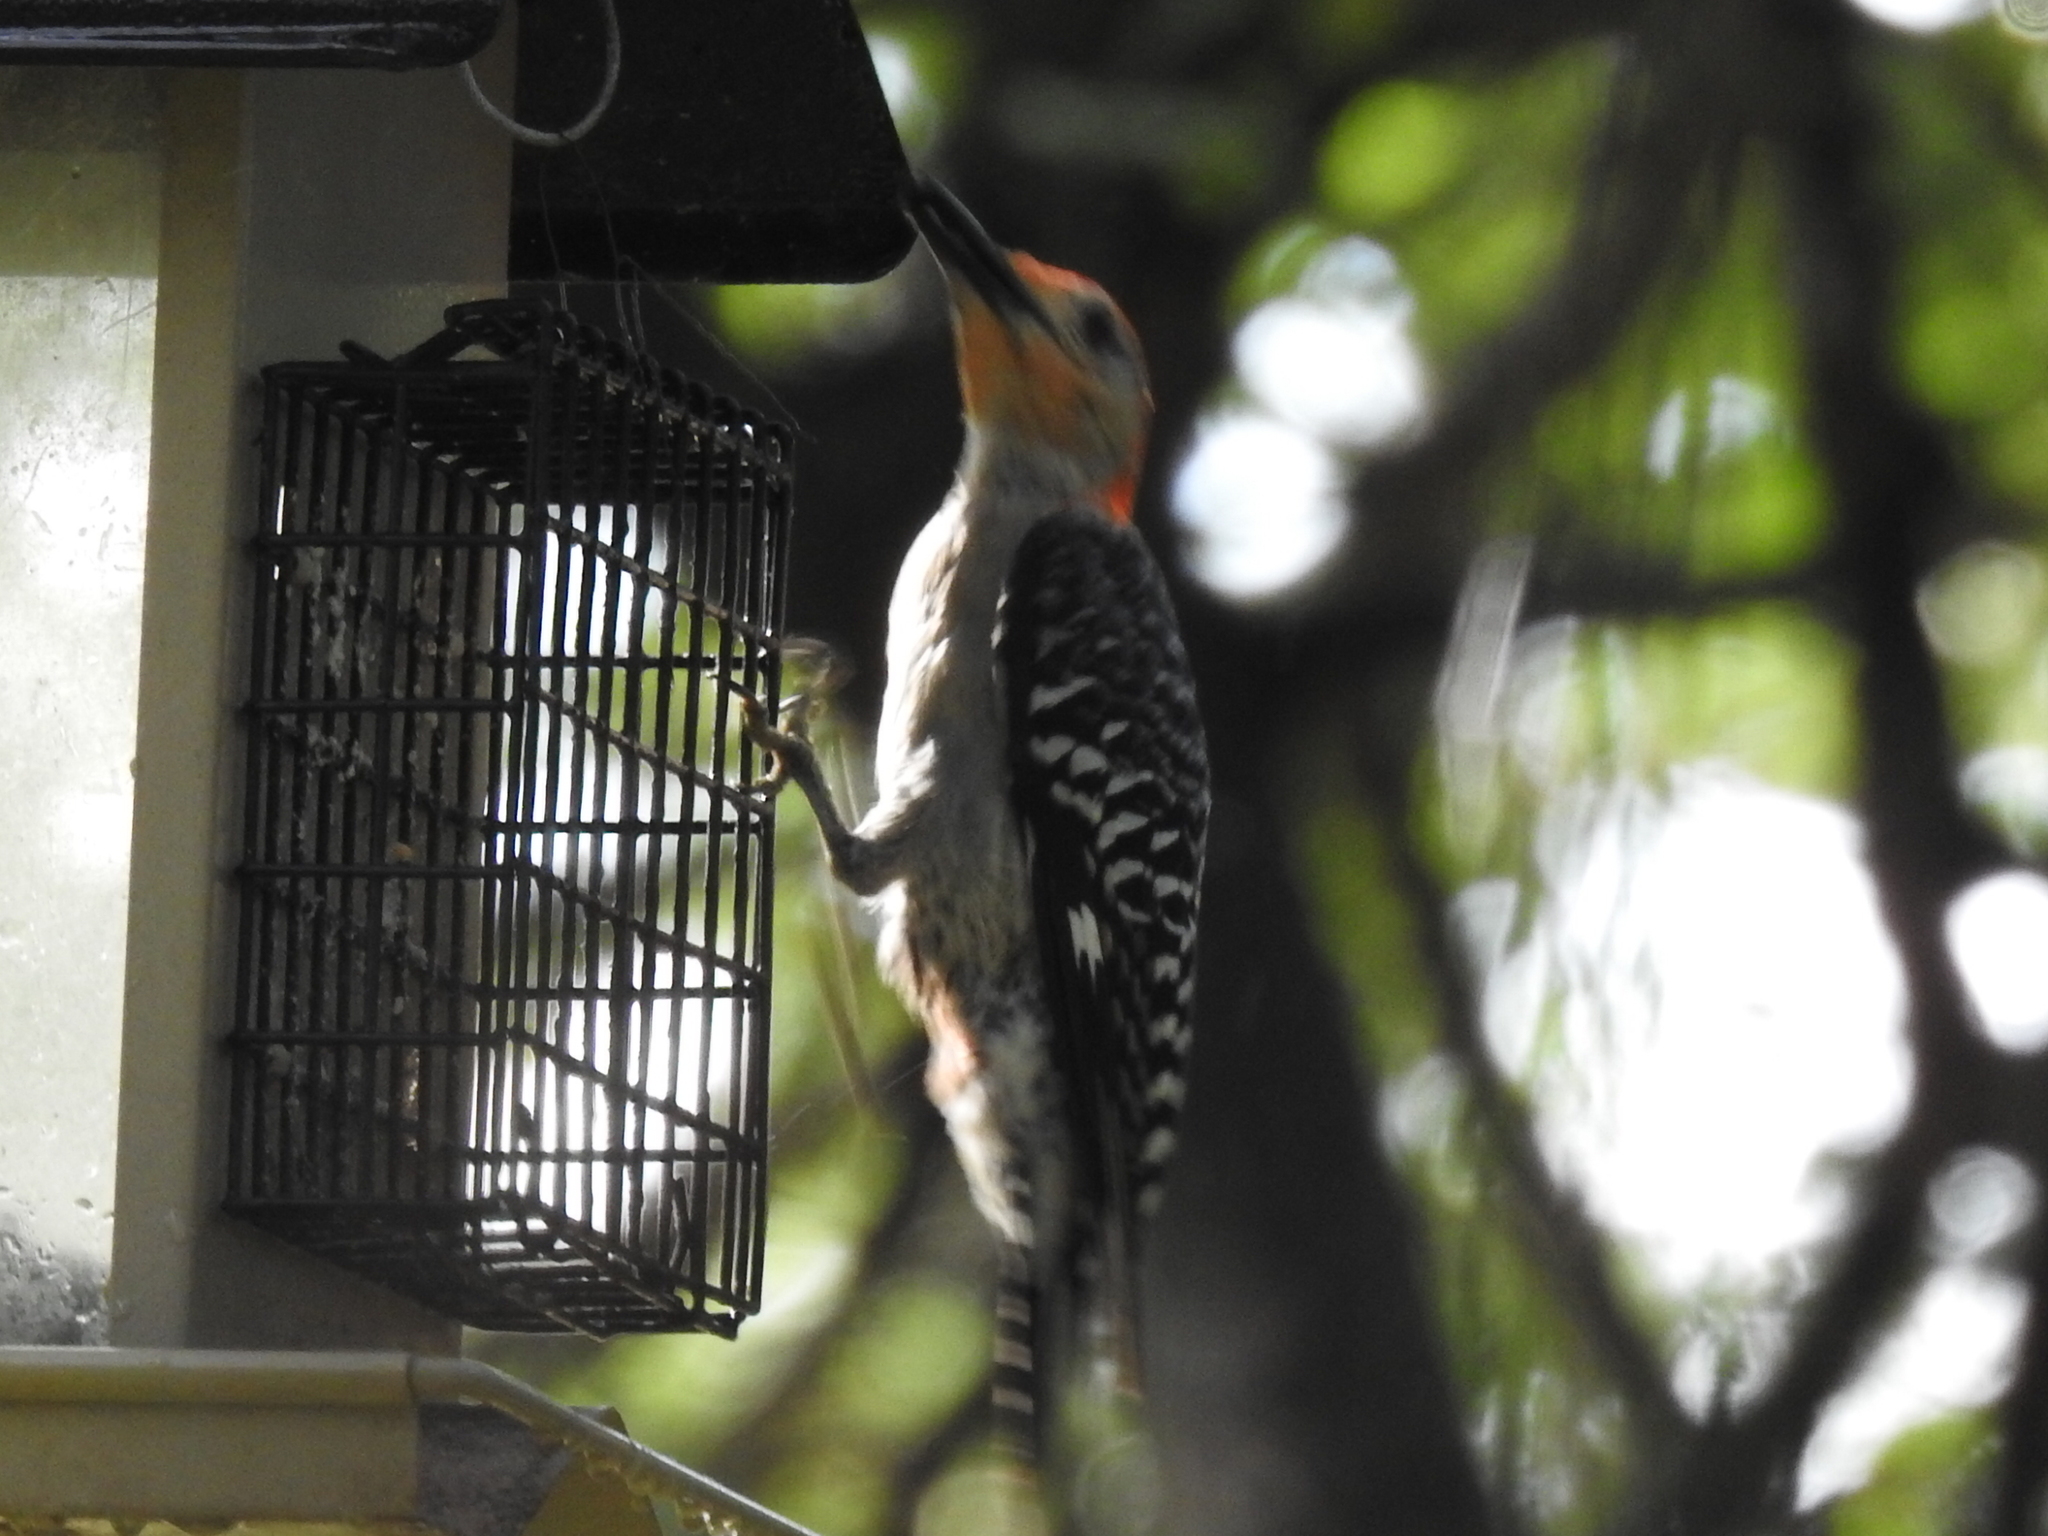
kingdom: Animalia
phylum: Chordata
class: Aves
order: Piciformes
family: Picidae
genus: Melanerpes
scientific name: Melanerpes carolinus
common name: Red-bellied woodpecker
